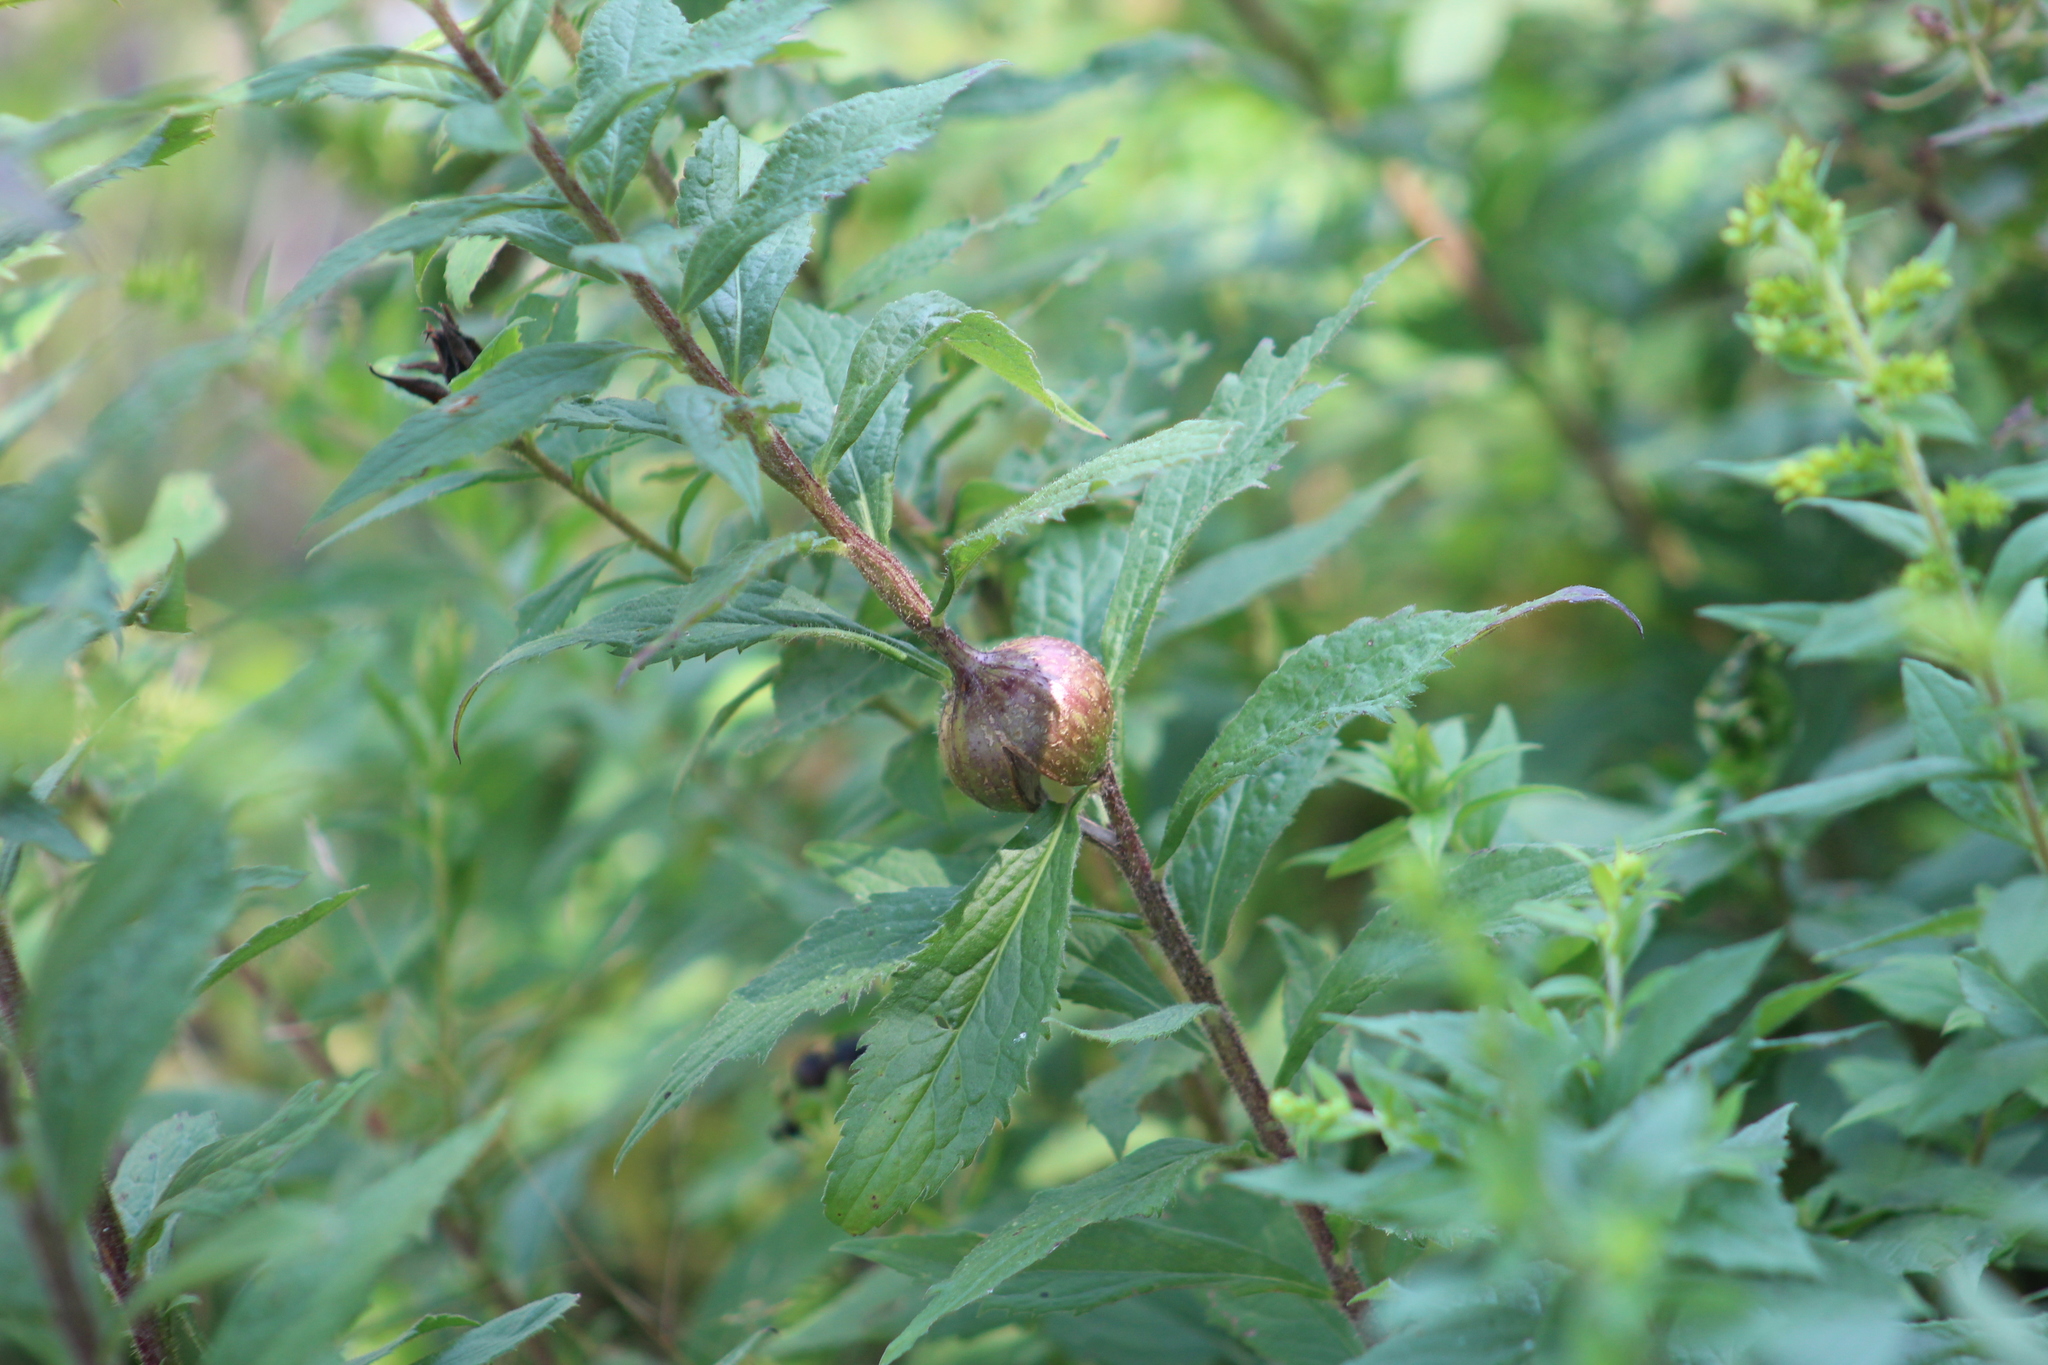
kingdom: Animalia
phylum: Arthropoda
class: Insecta
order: Diptera
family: Tephritidae
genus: Eurosta
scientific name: Eurosta solidaginis
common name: Goldenrod gall fly
